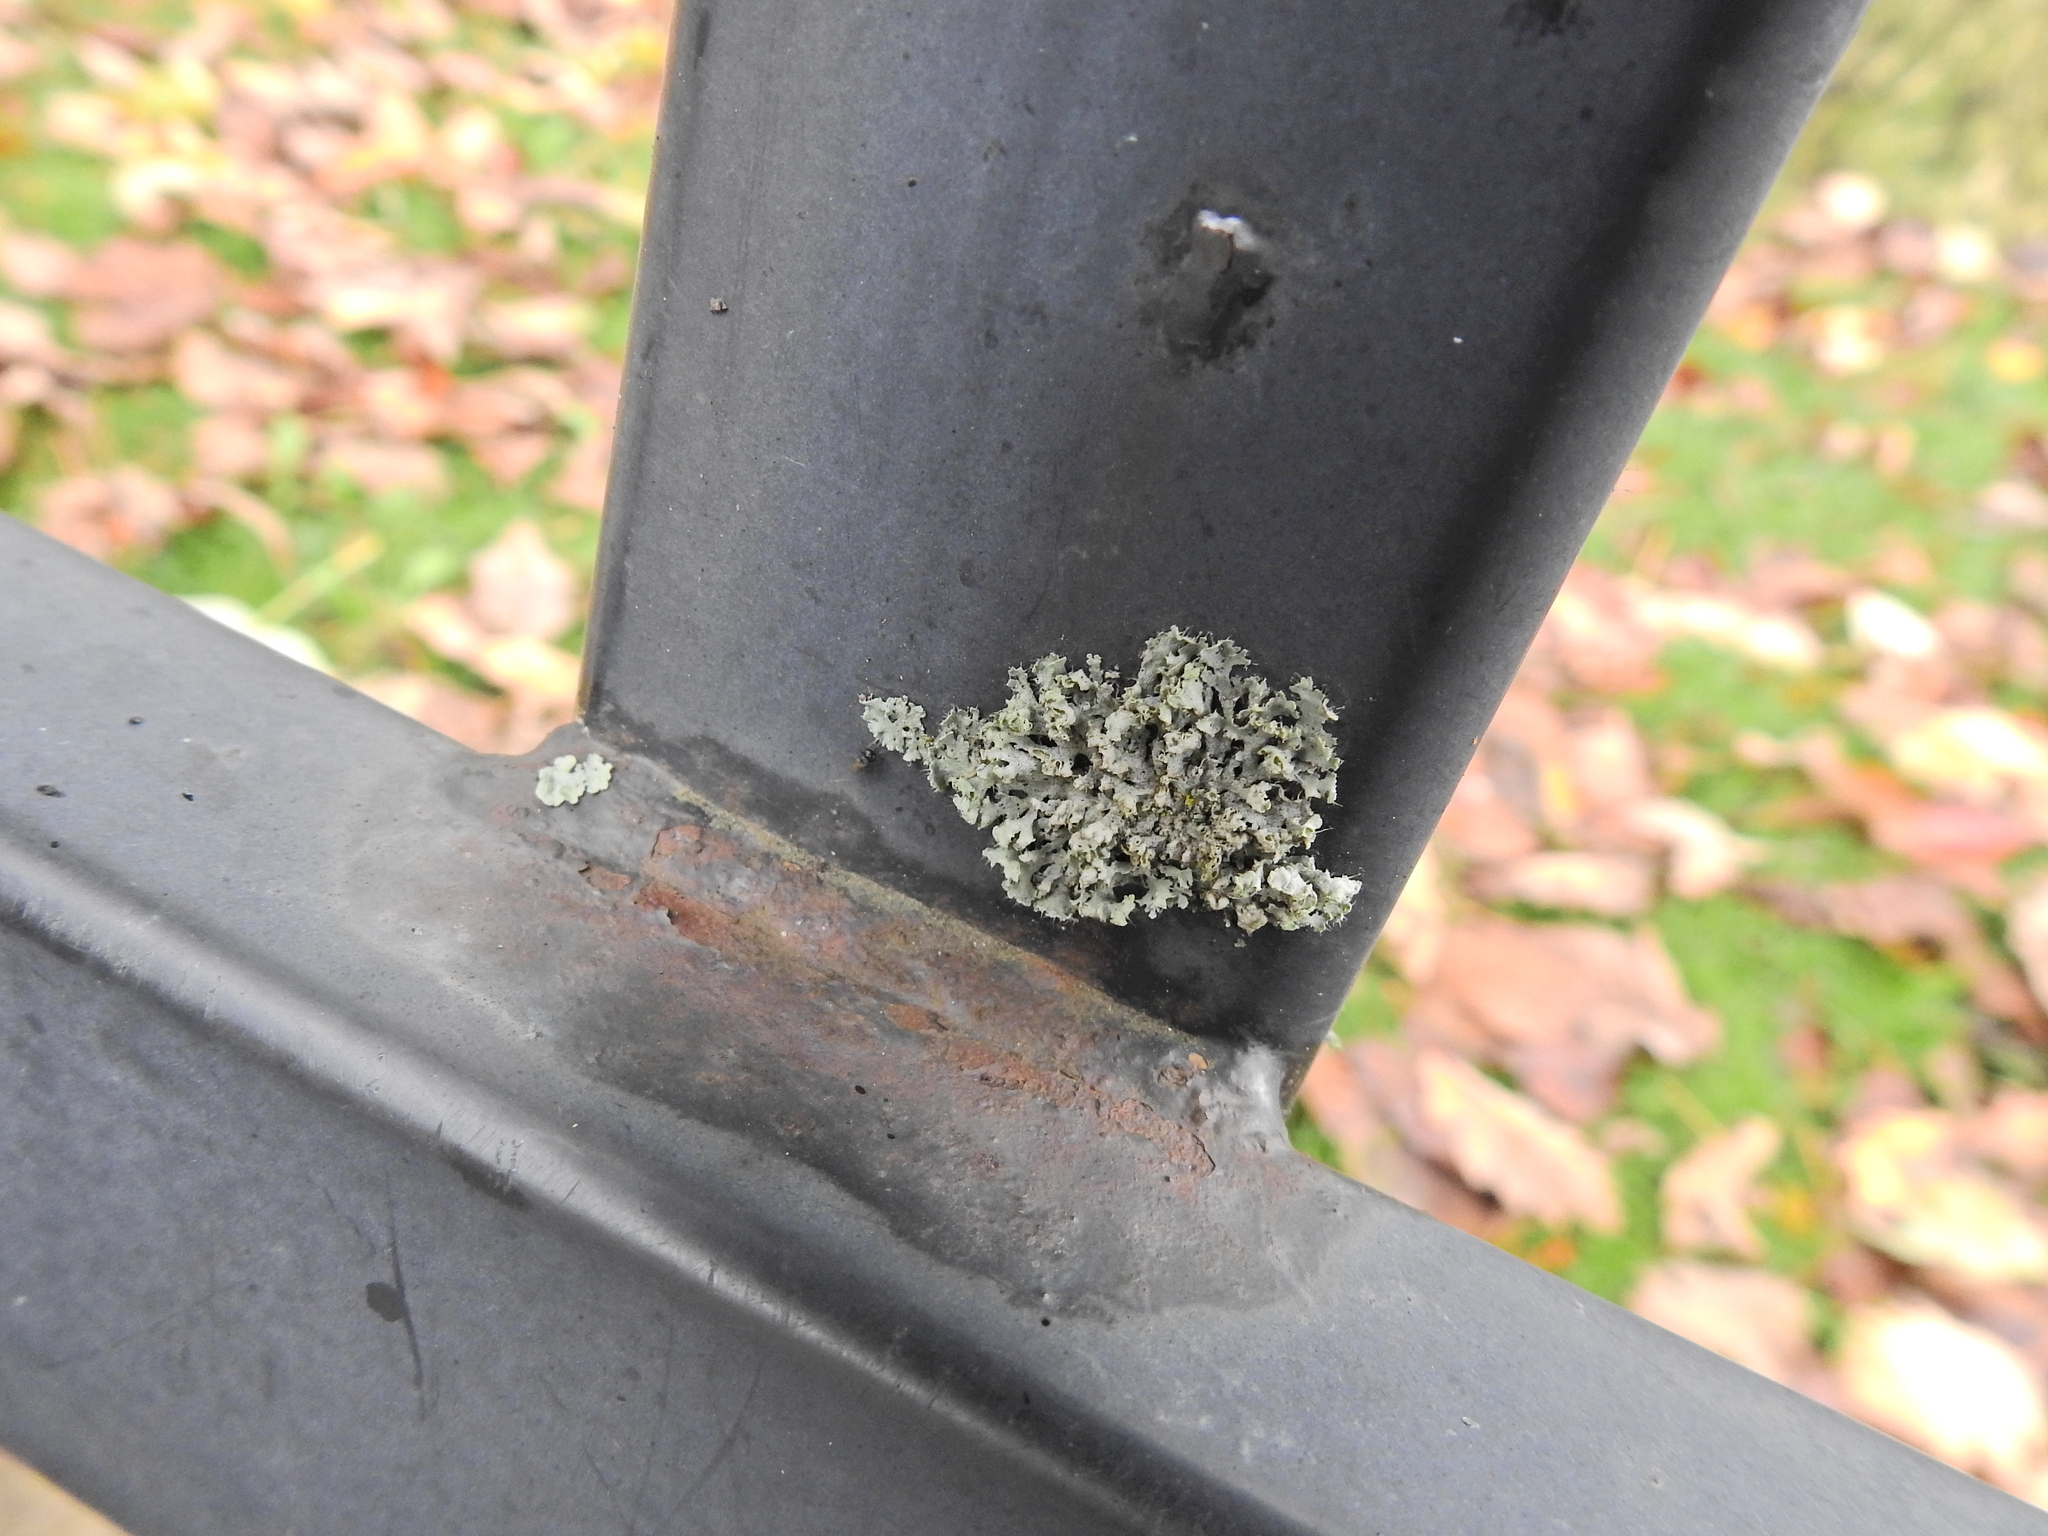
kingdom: Fungi
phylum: Ascomycota
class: Lecanoromycetes
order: Caliciales
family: Physciaceae
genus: Physcia
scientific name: Physcia adscendens
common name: Hooded rosette lichen
